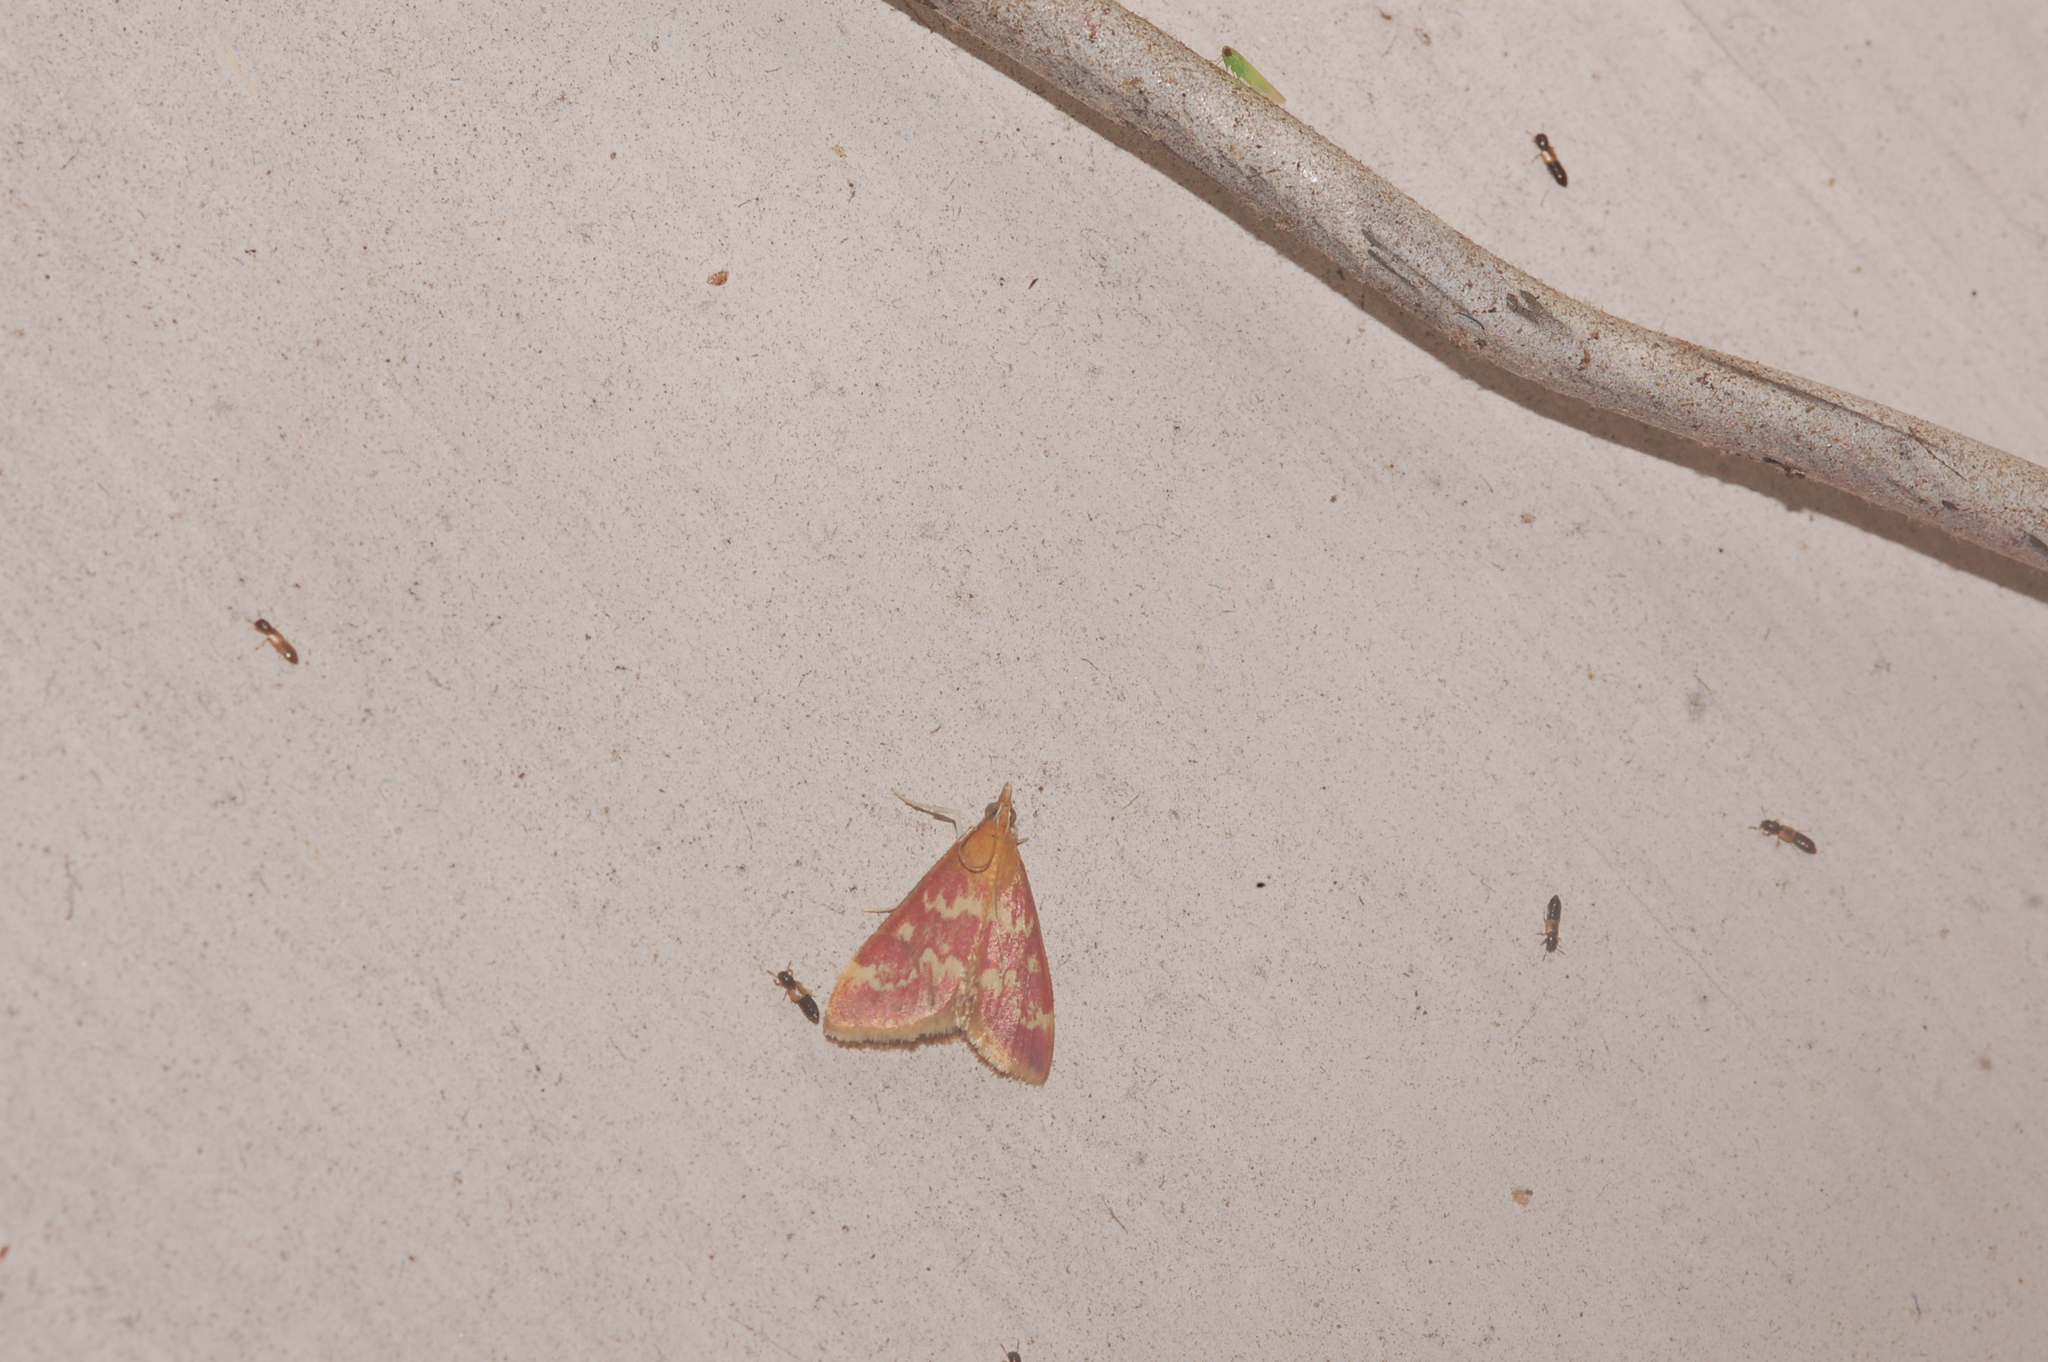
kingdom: Animalia
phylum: Arthropoda
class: Insecta
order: Lepidoptera
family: Crambidae
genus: Pyrausta
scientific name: Pyrausta signatalis
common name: Raspberry pyrausta moth
